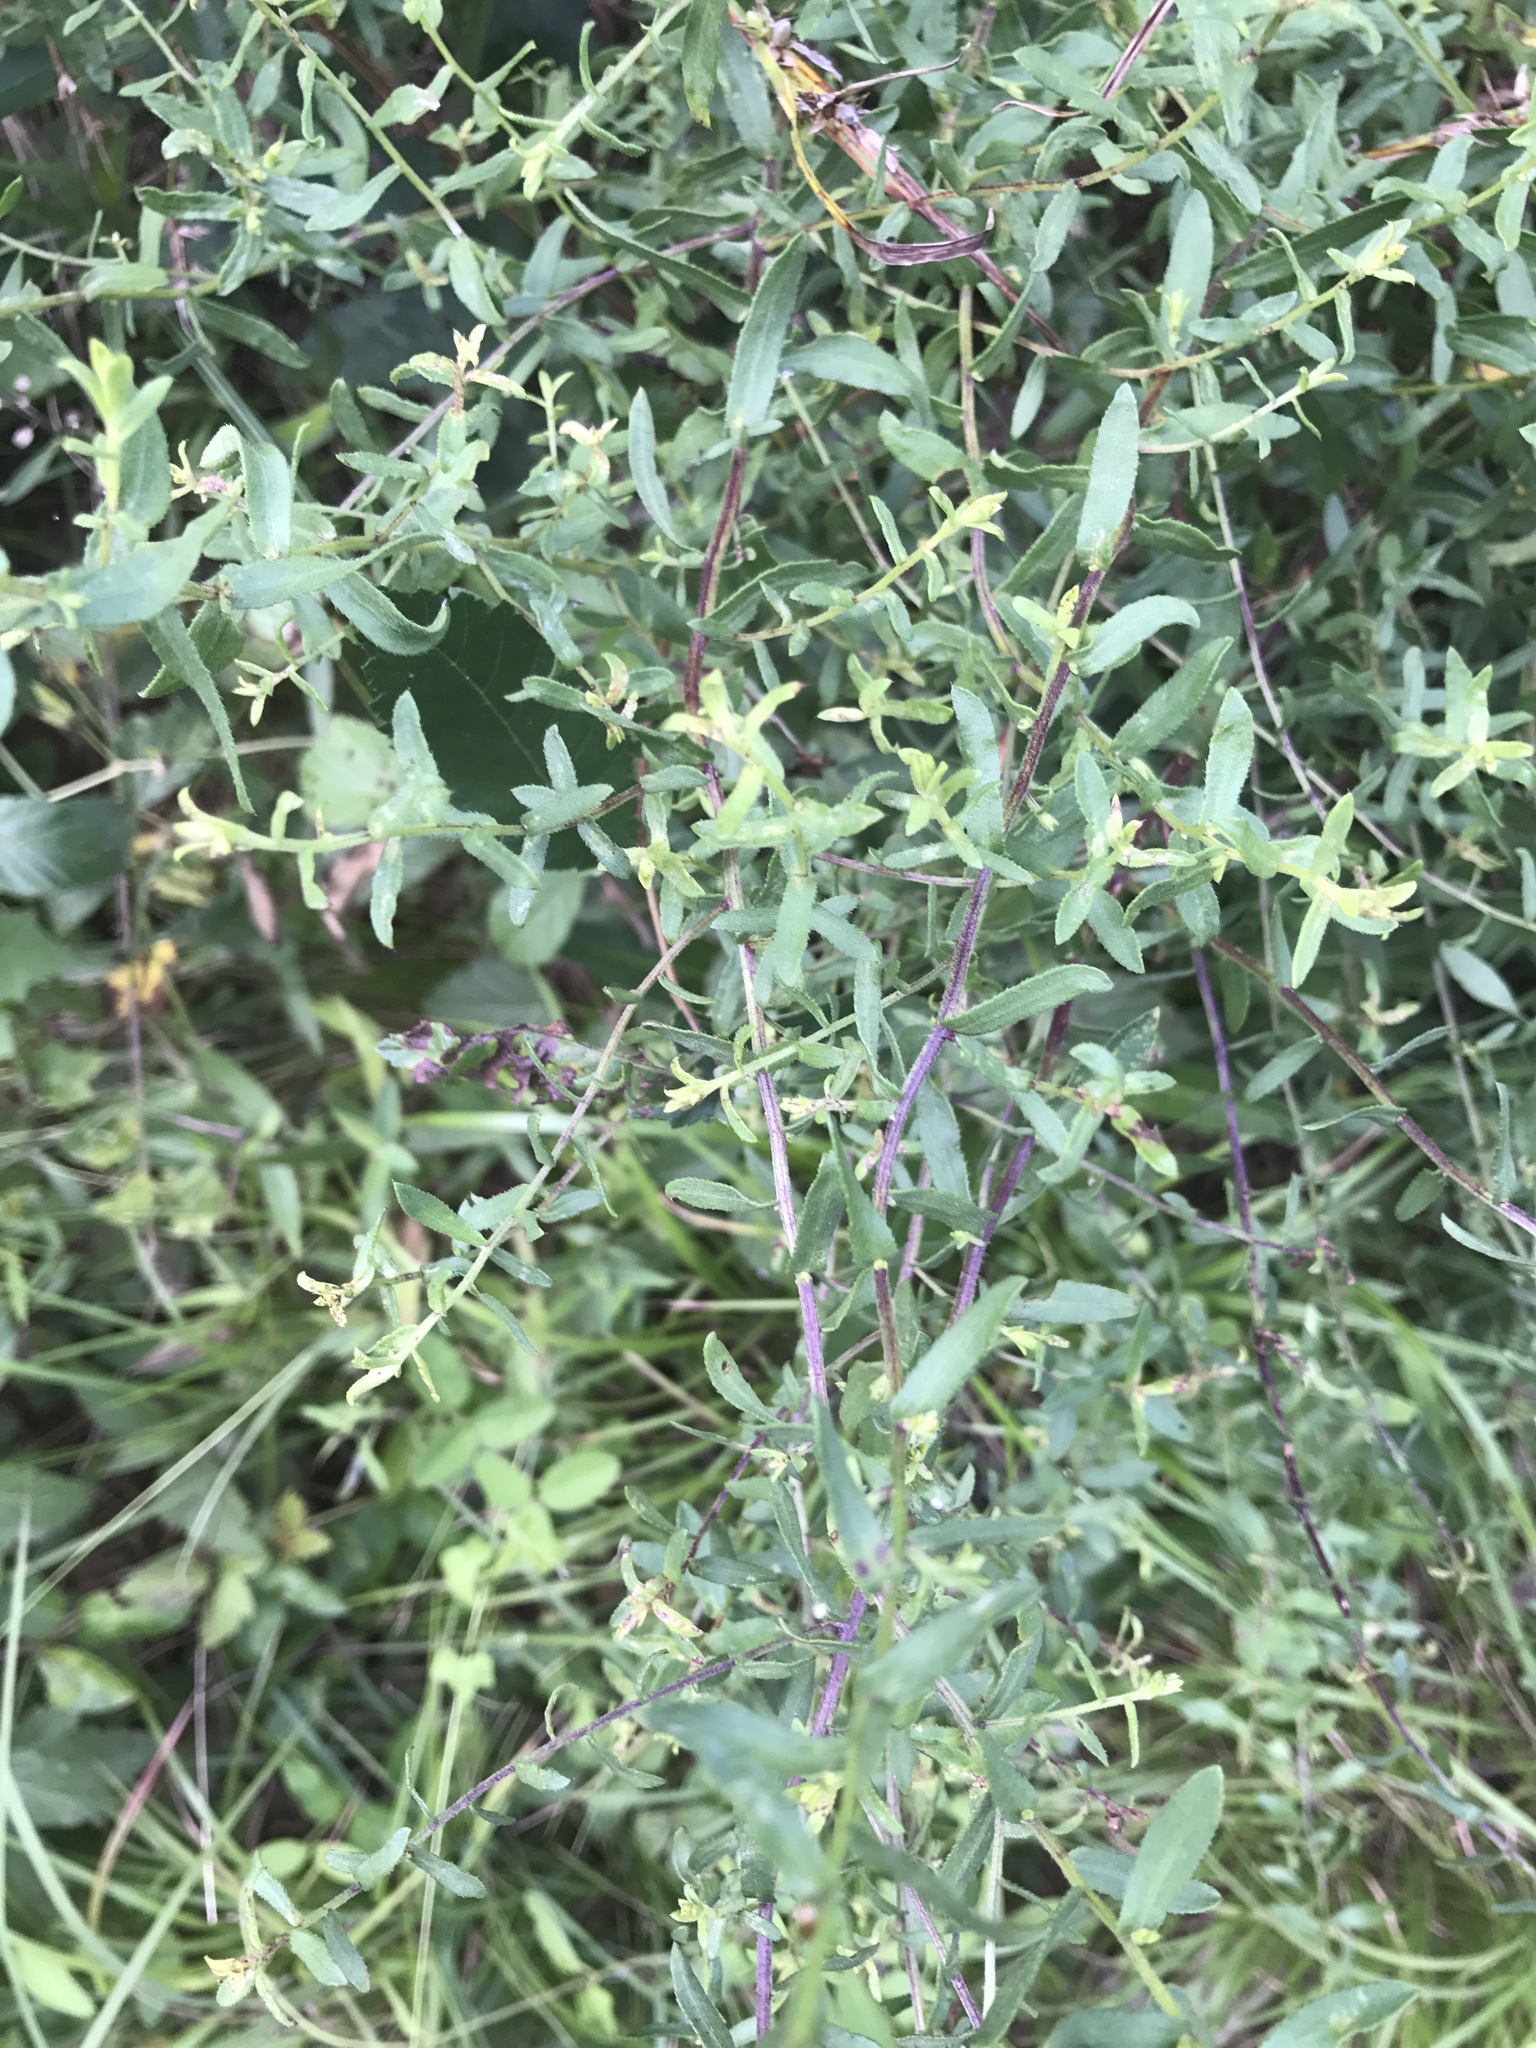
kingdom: Plantae
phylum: Tracheophyta
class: Magnoliopsida
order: Asterales
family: Asteraceae
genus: Symphyotrichum
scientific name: Symphyotrichum grandiflorum
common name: Big-head aster
